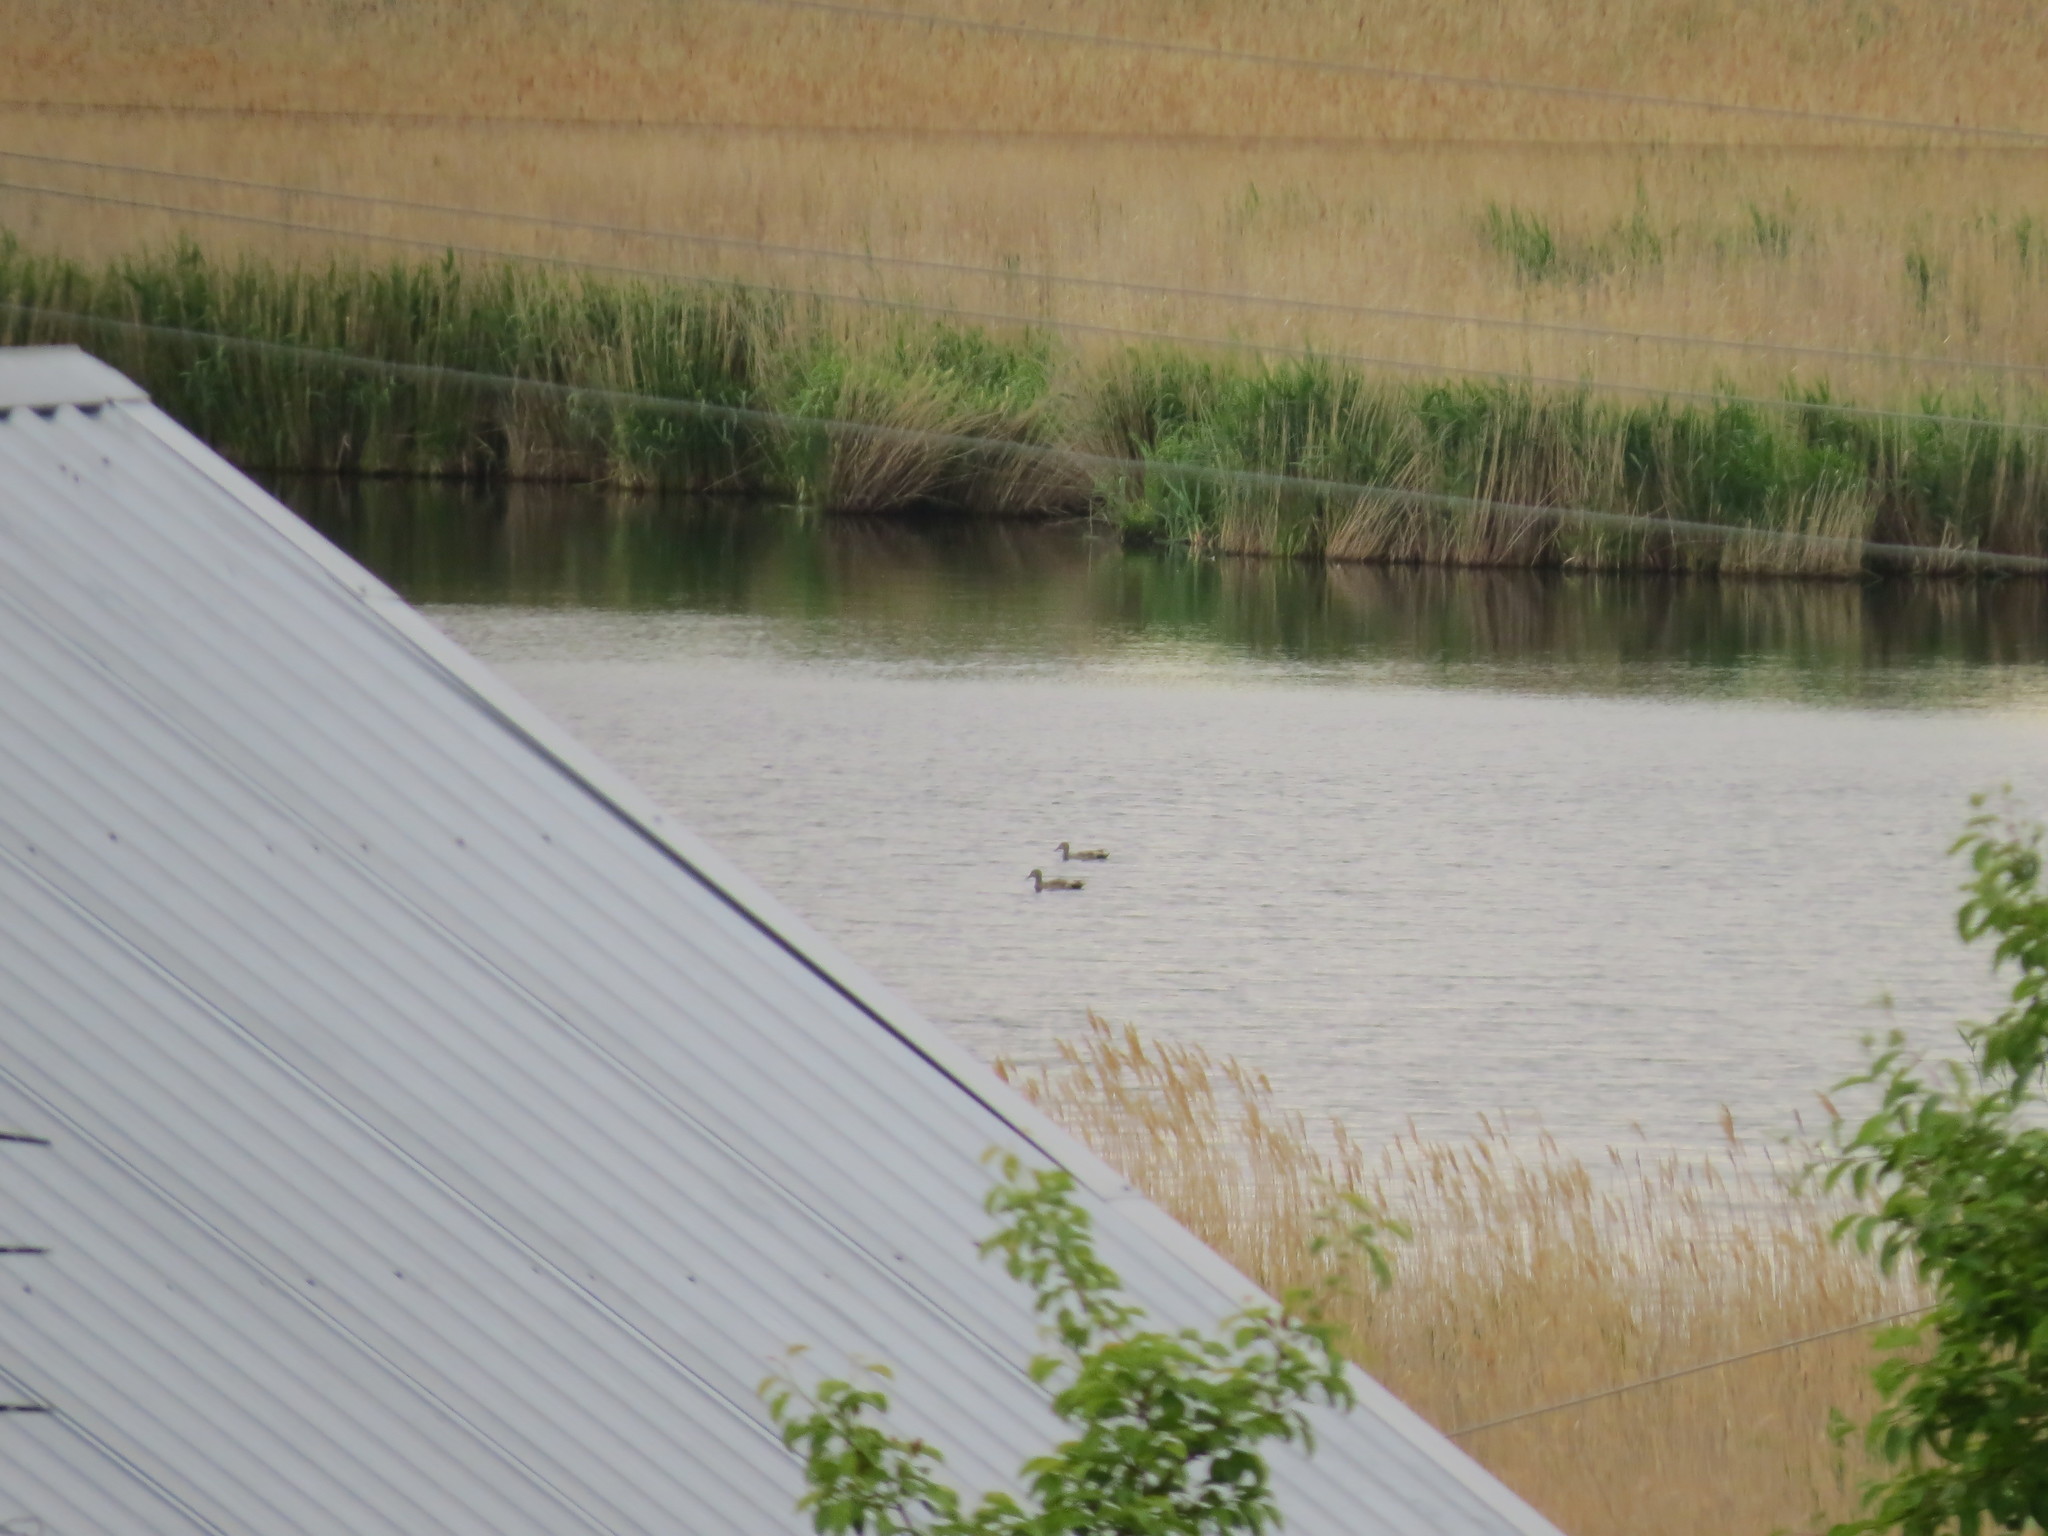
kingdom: Animalia
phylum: Chordata
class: Aves
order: Anseriformes
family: Anatidae
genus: Mareca
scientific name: Mareca strepera
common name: Gadwall
